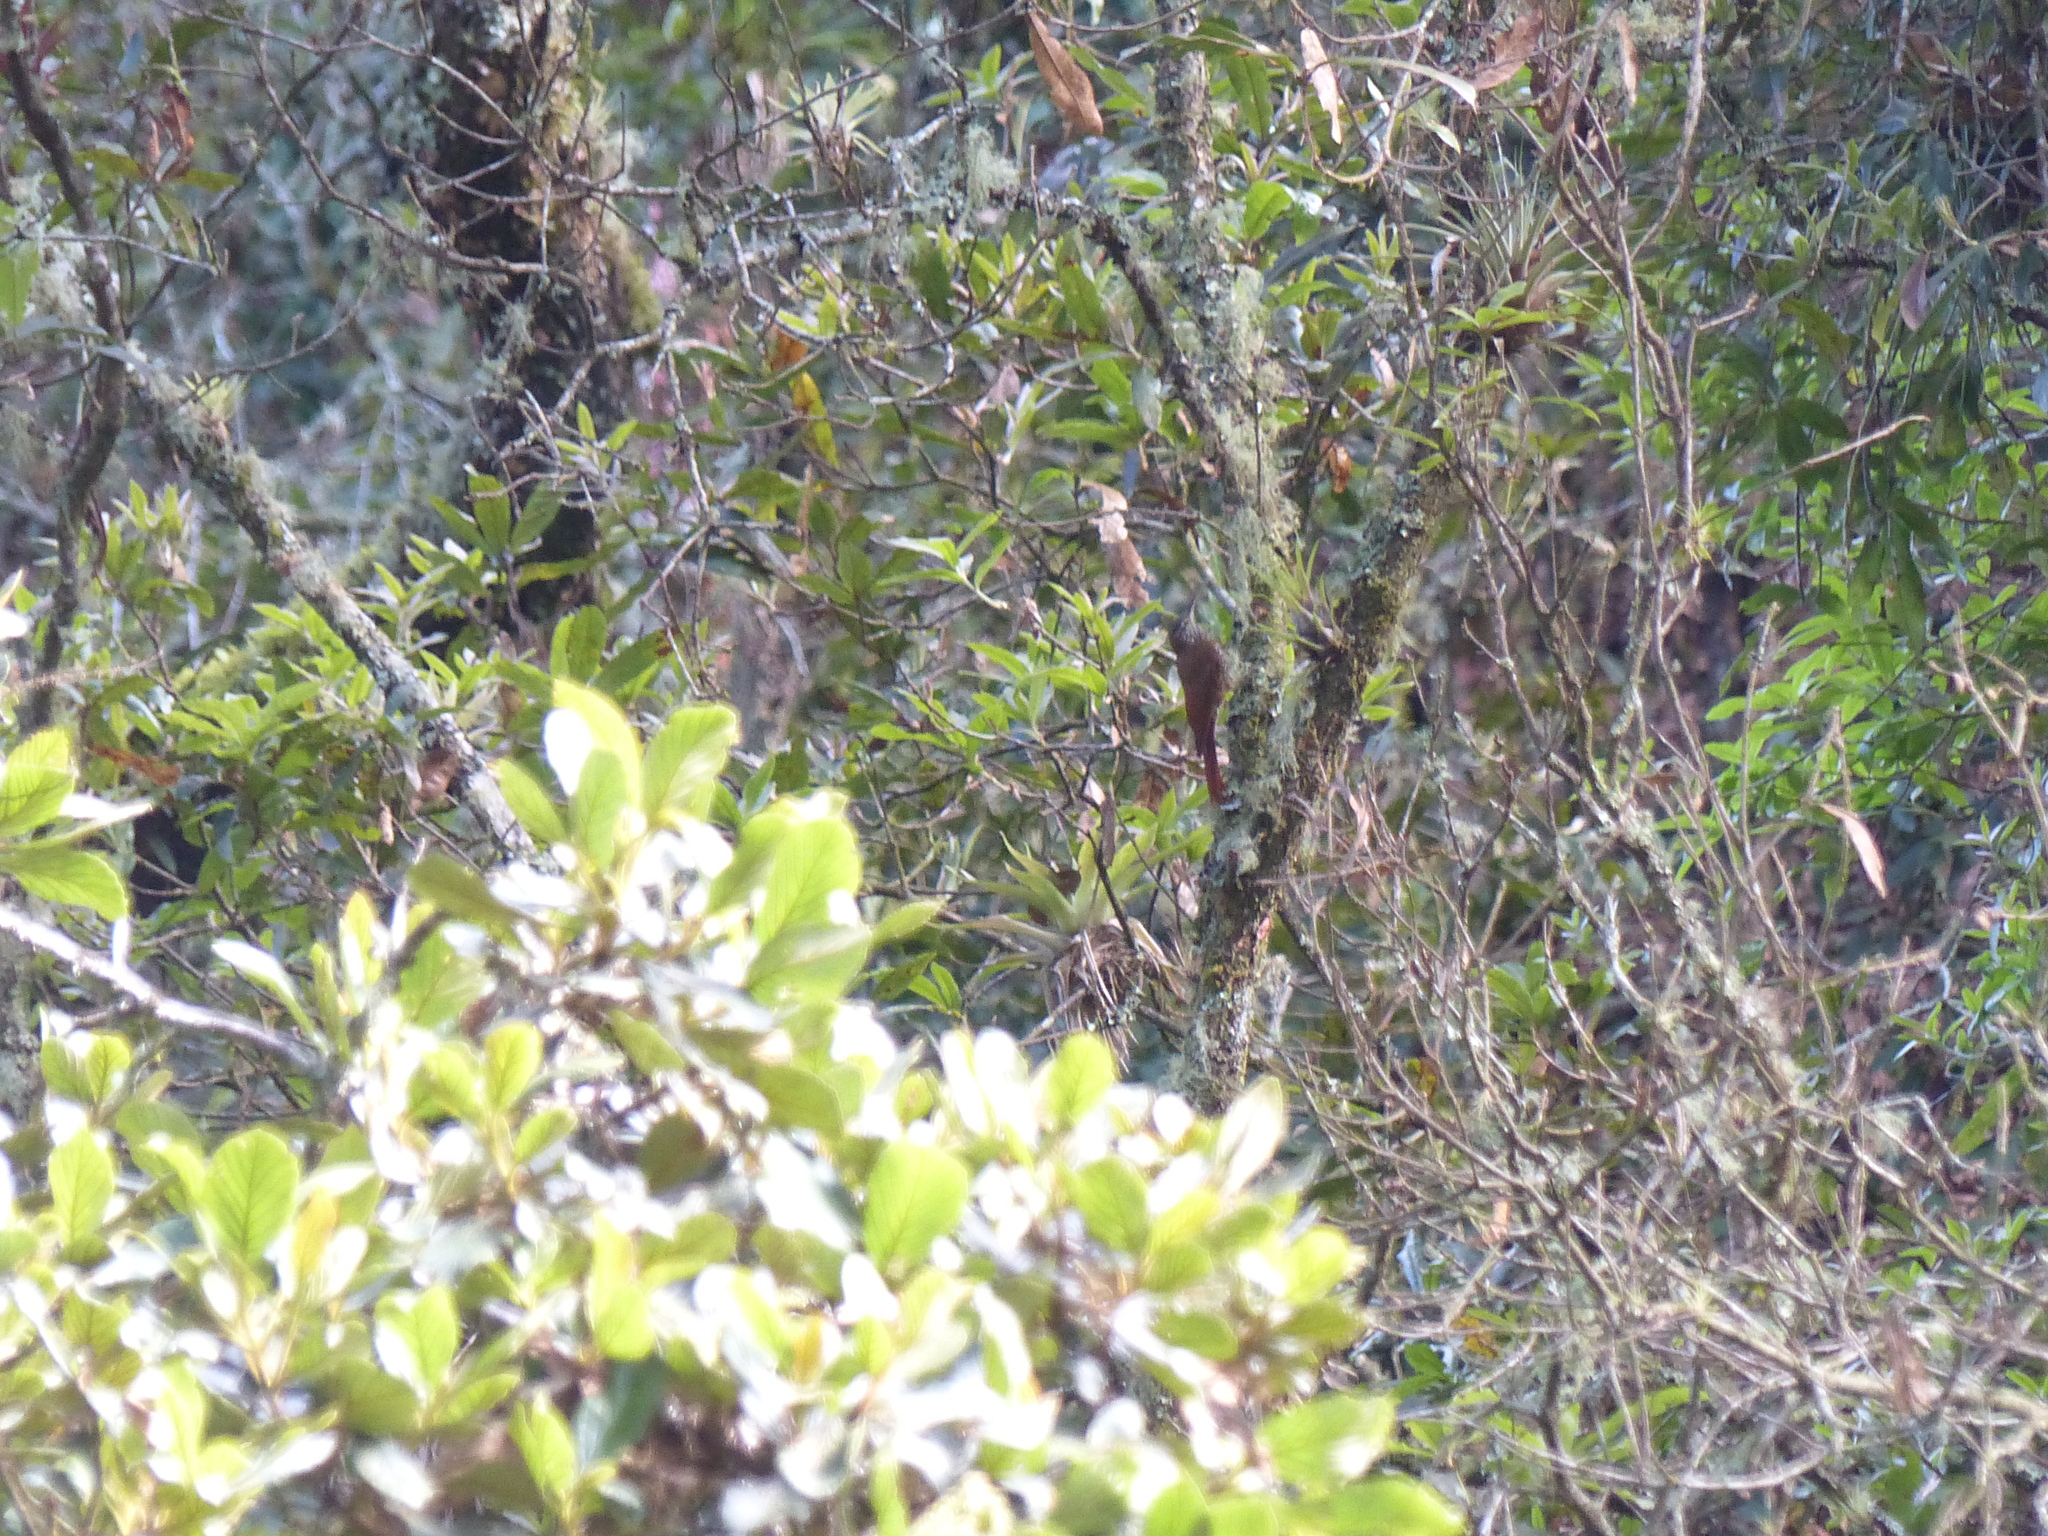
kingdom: Animalia
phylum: Chordata
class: Aves
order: Passeriformes
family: Furnariidae
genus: Lepidocolaptes
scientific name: Lepidocolaptes lacrymiger
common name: Montane woodcreeper
